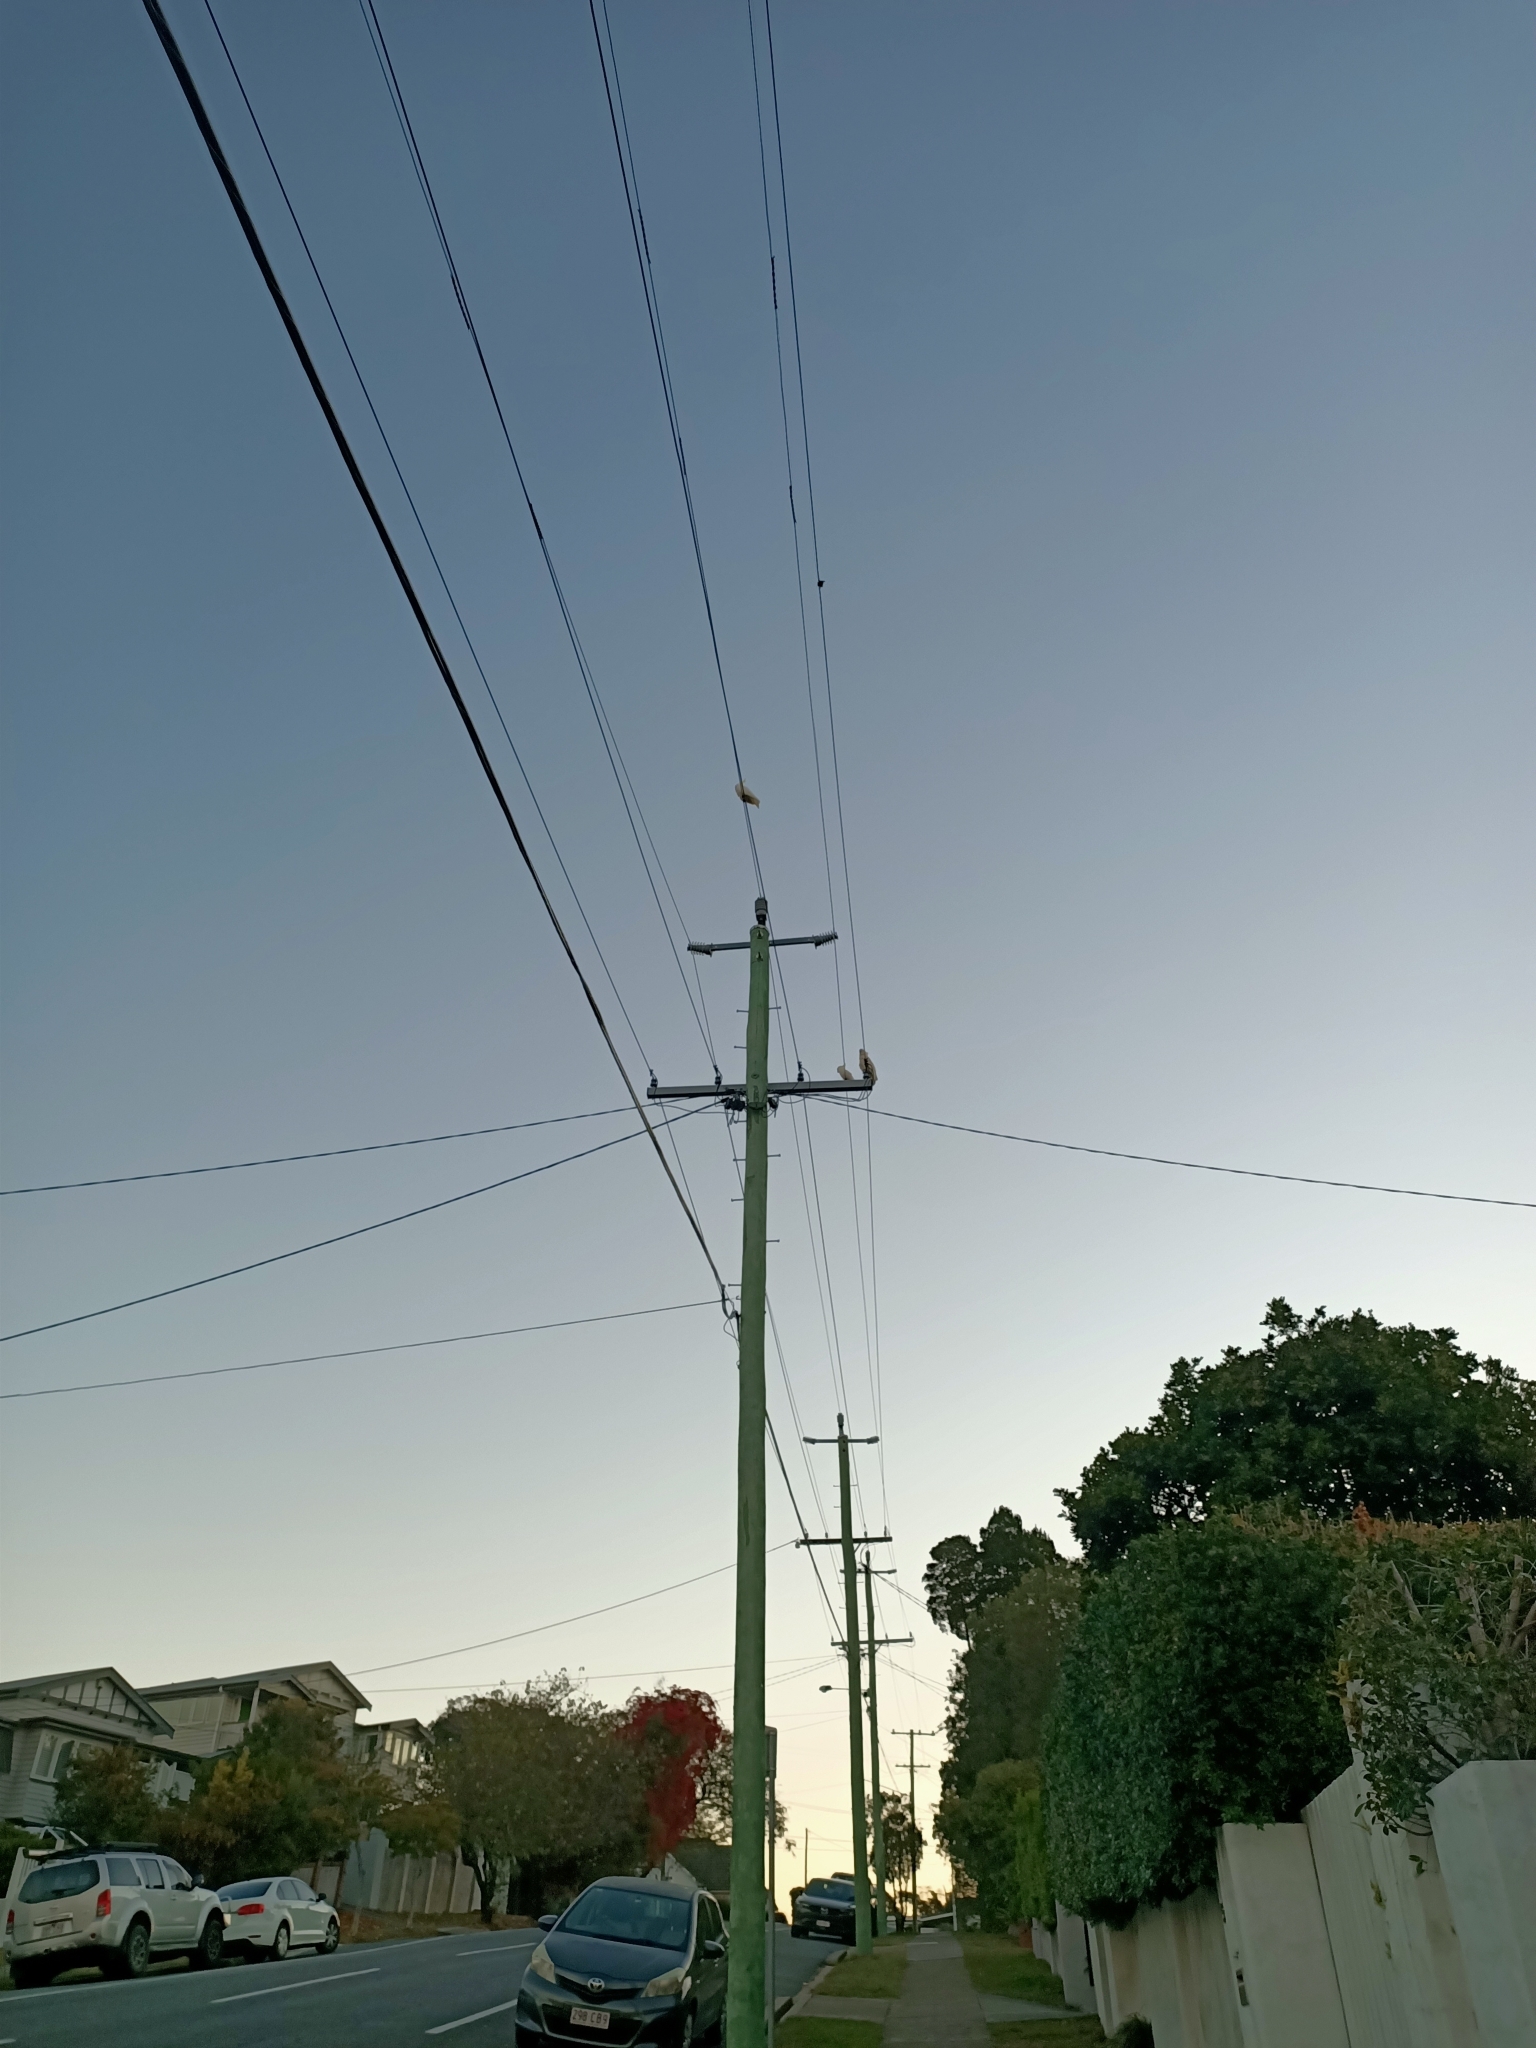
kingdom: Animalia
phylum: Chordata
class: Aves
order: Psittaciformes
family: Psittacidae
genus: Cacatua
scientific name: Cacatua galerita
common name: Sulphur-crested cockatoo
